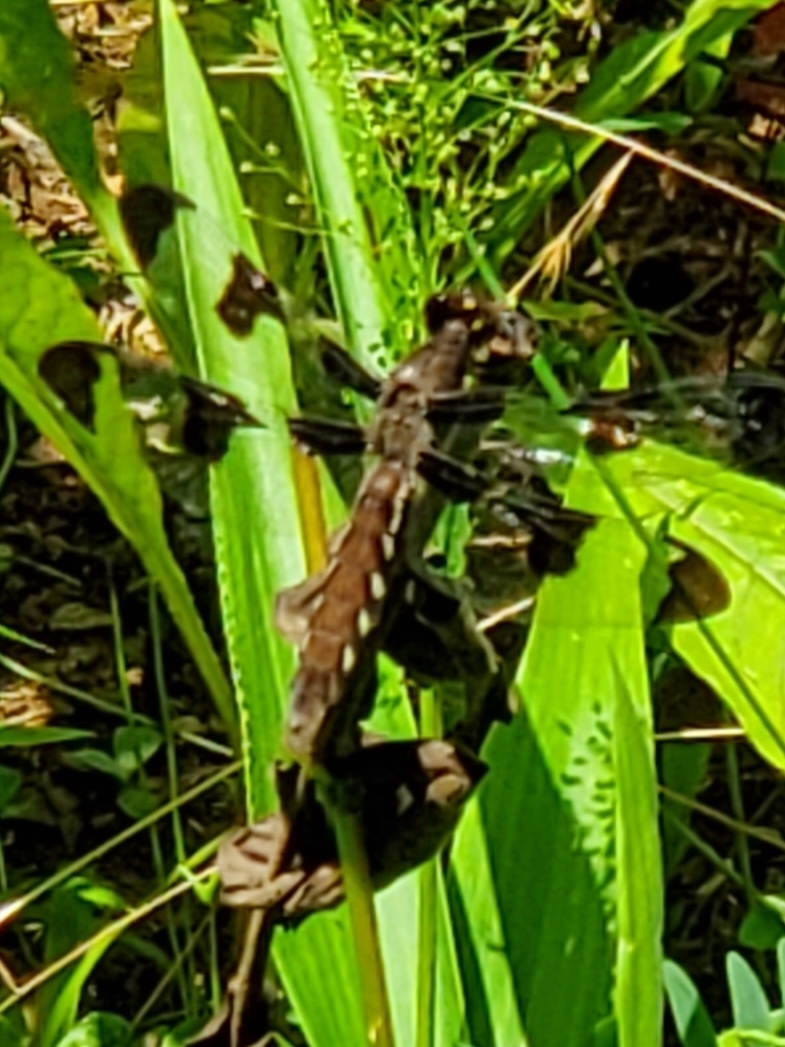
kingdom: Animalia
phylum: Arthropoda
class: Insecta
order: Odonata
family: Libellulidae
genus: Plathemis
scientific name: Plathemis lydia
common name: Common whitetail
